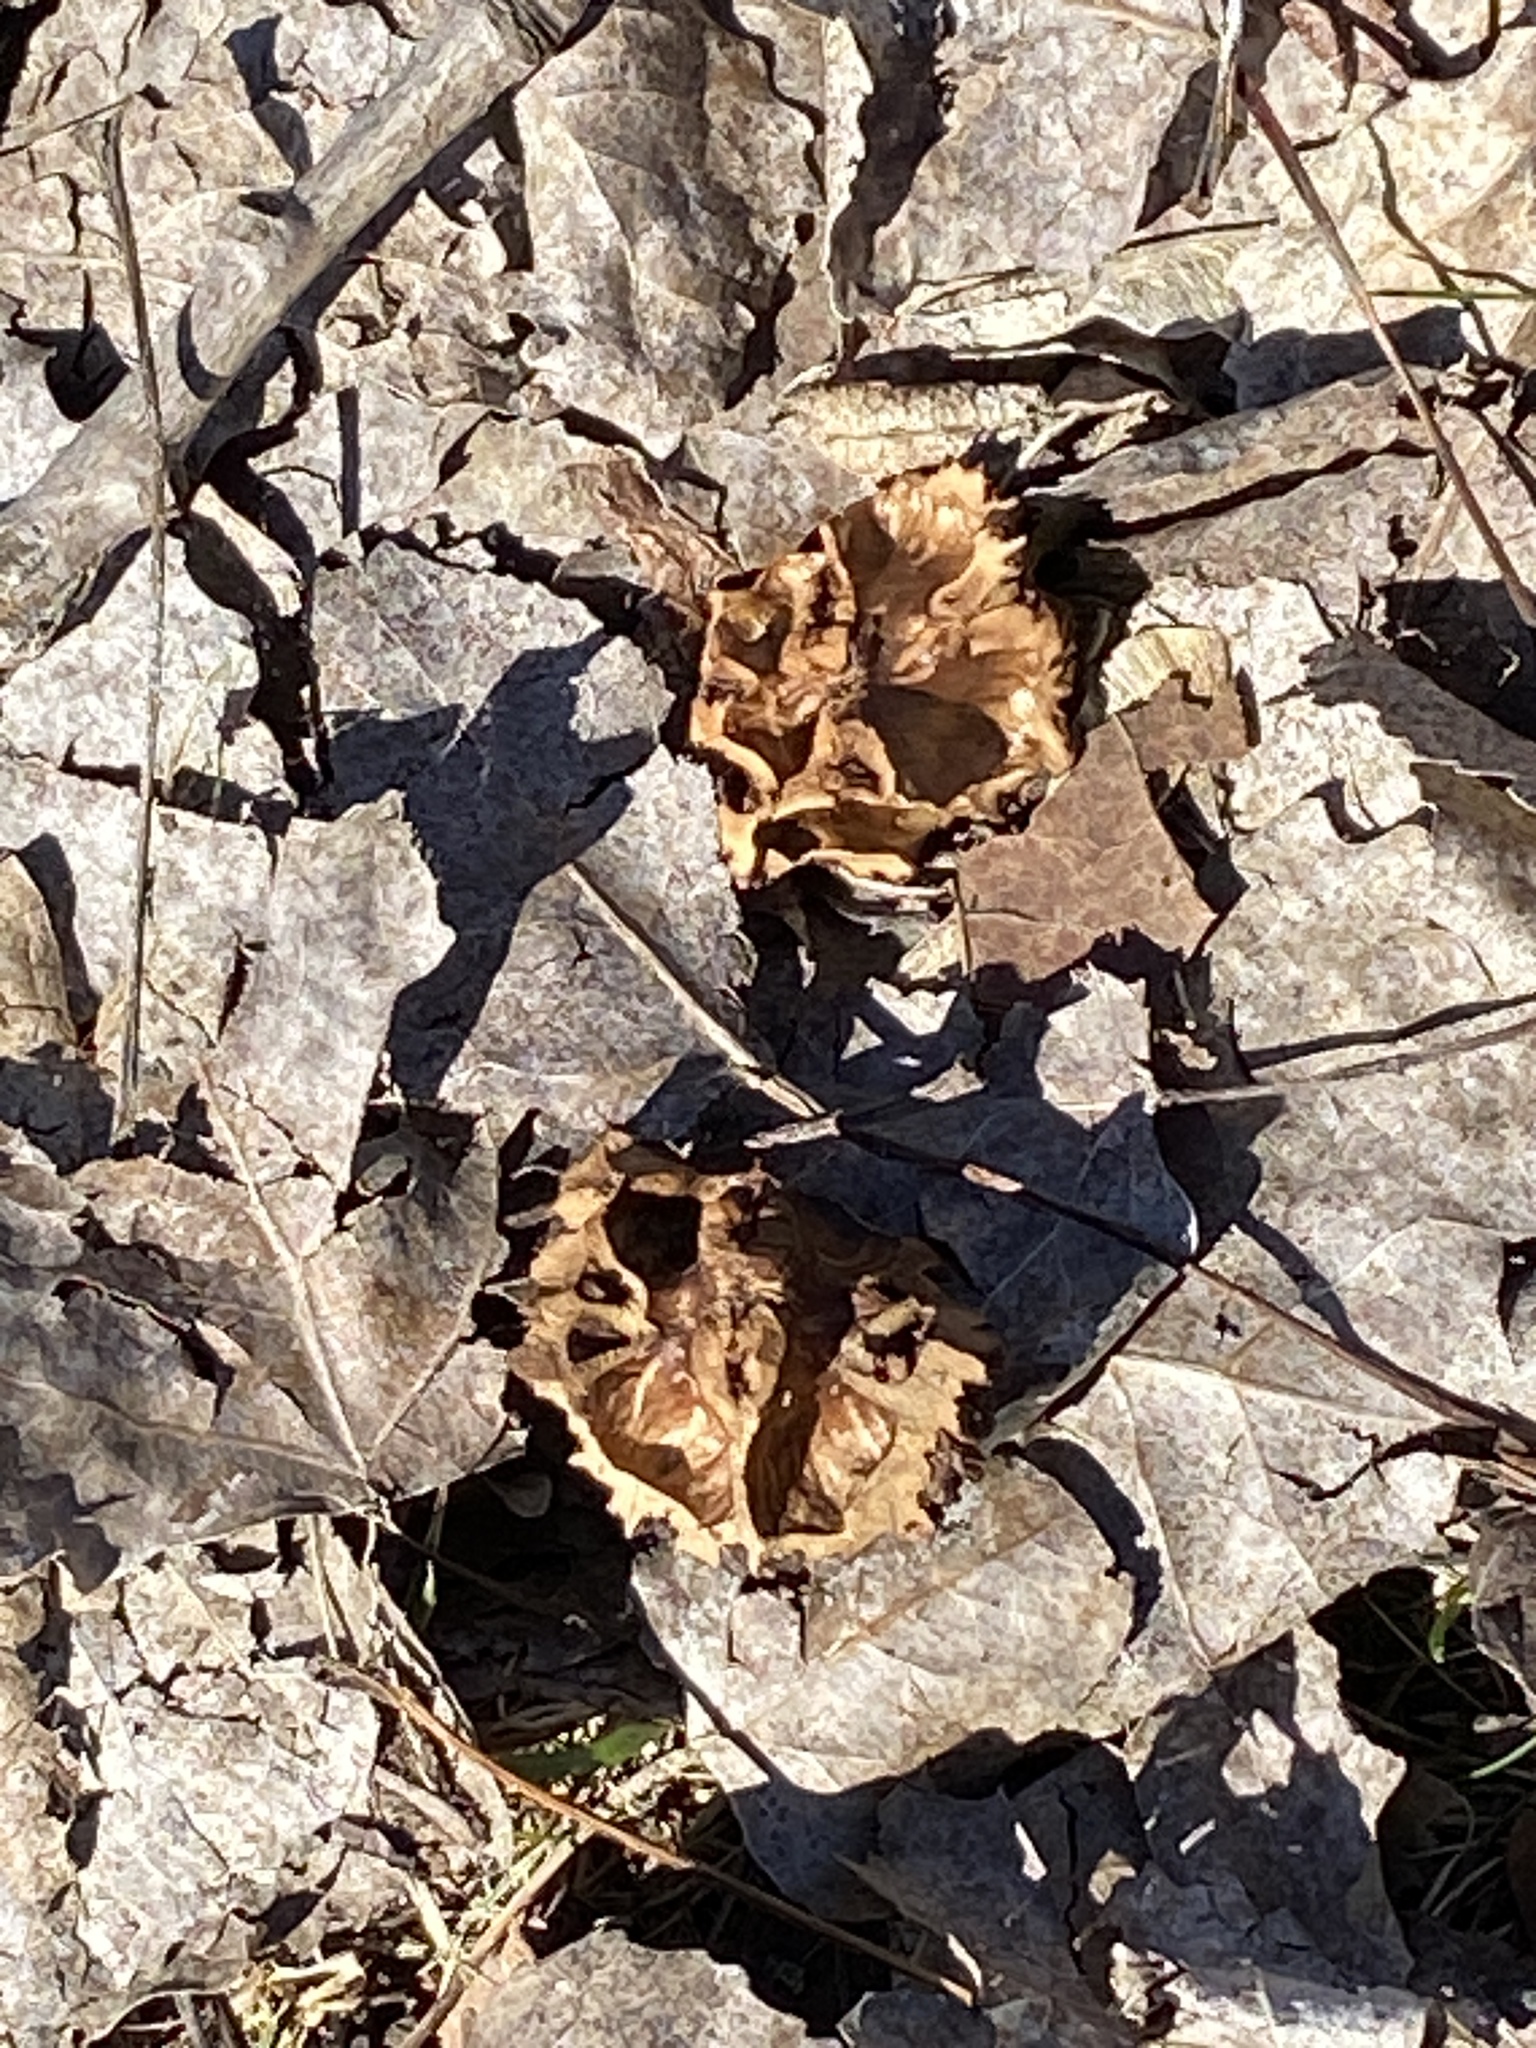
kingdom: Plantae
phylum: Tracheophyta
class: Magnoliopsida
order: Fagales
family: Juglandaceae
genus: Juglans
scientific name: Juglans nigra
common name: Black walnut
